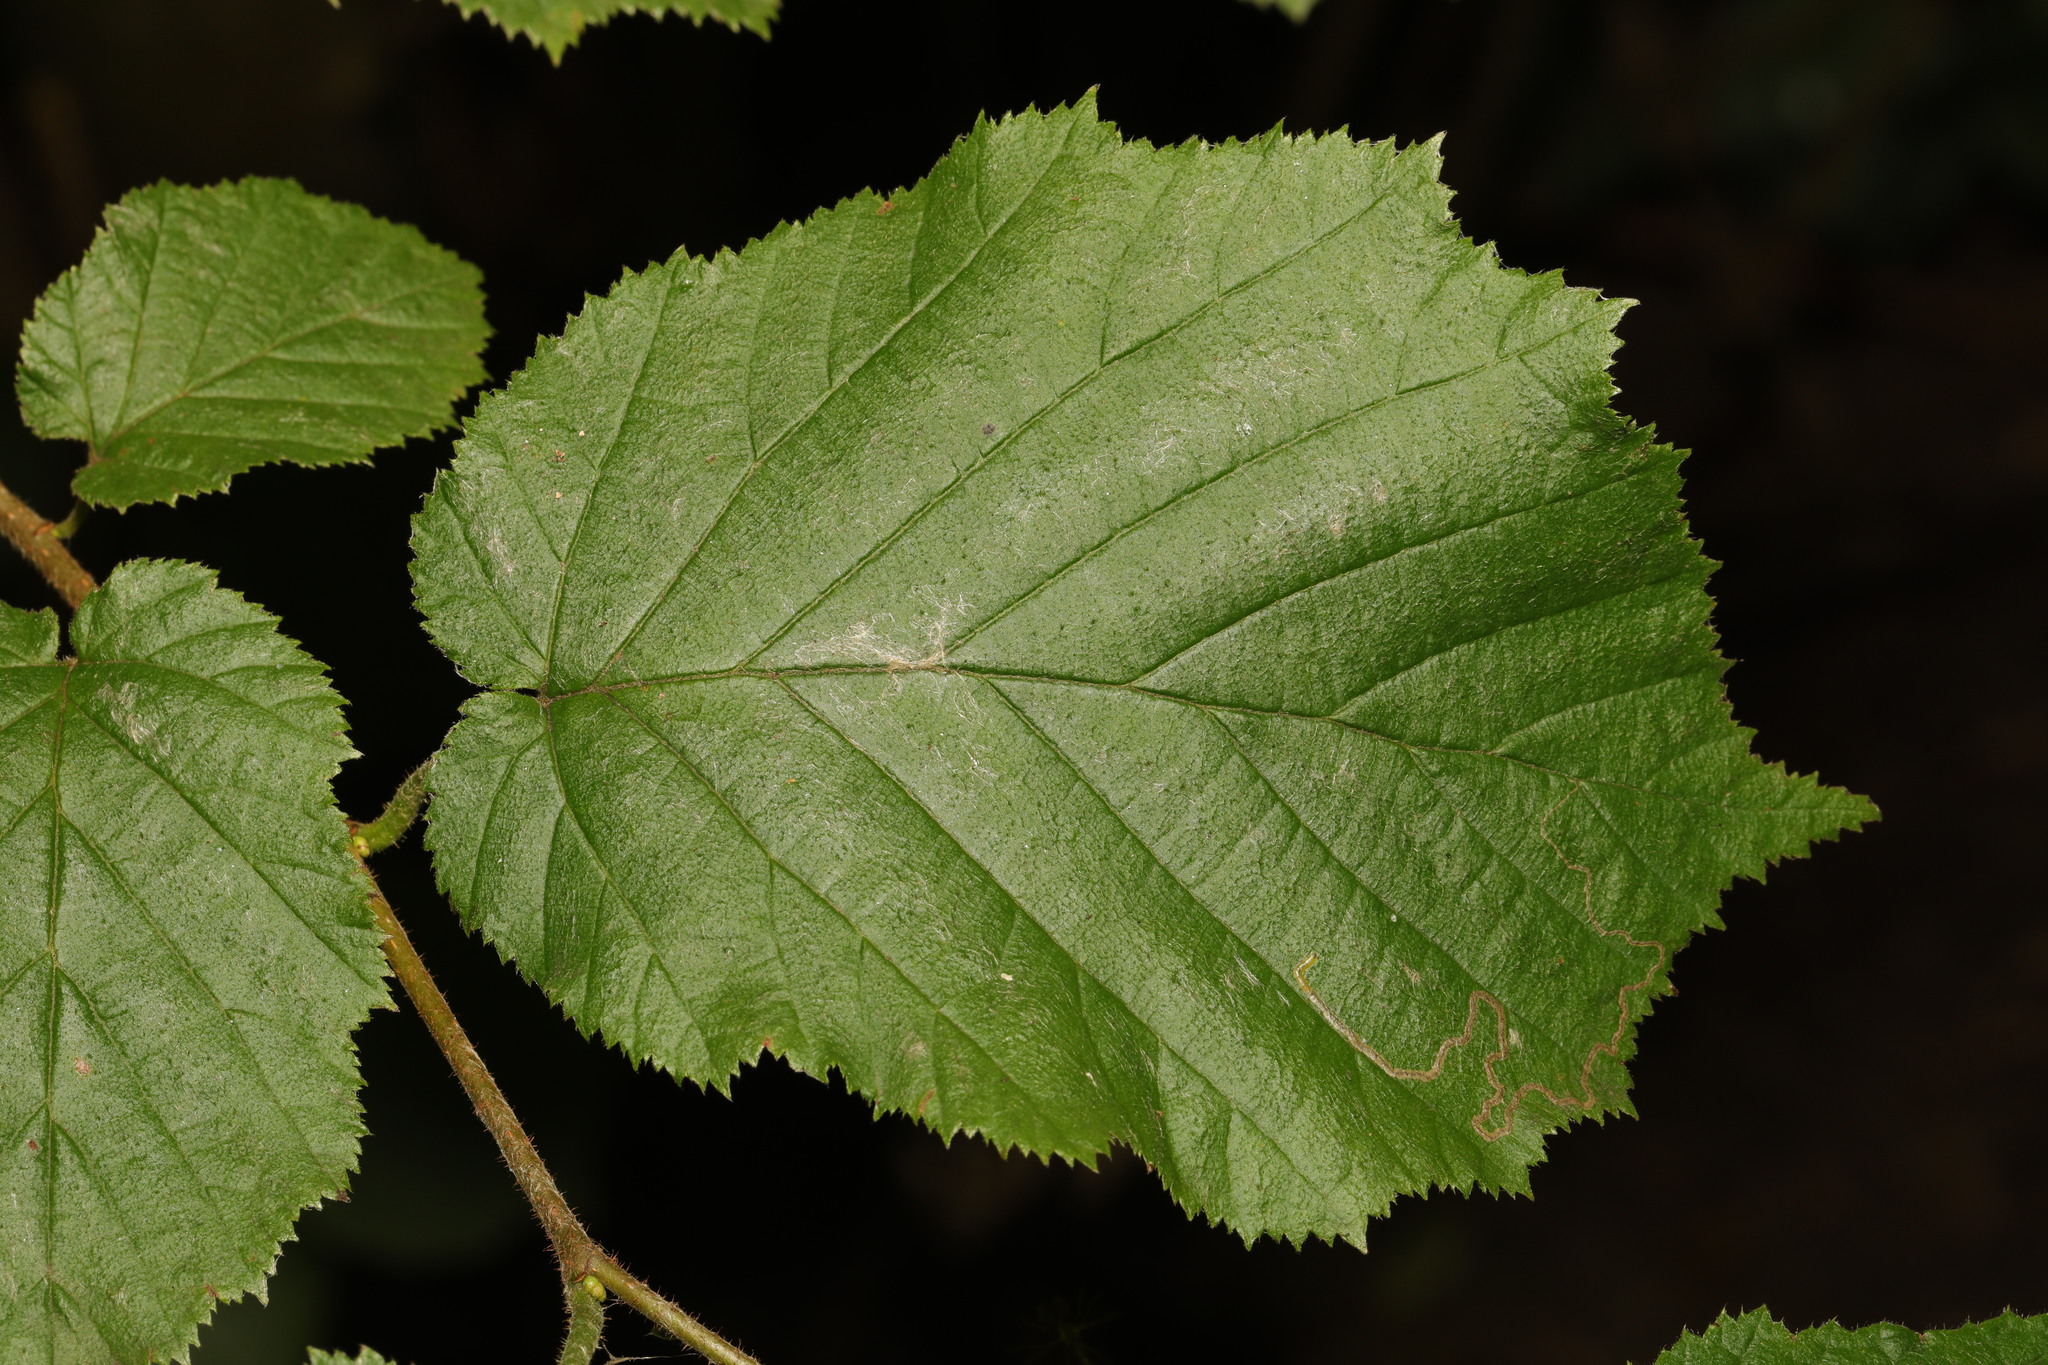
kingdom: Plantae
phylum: Tracheophyta
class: Magnoliopsida
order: Fagales
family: Betulaceae
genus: Corylus
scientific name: Corylus avellana
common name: European hazel
